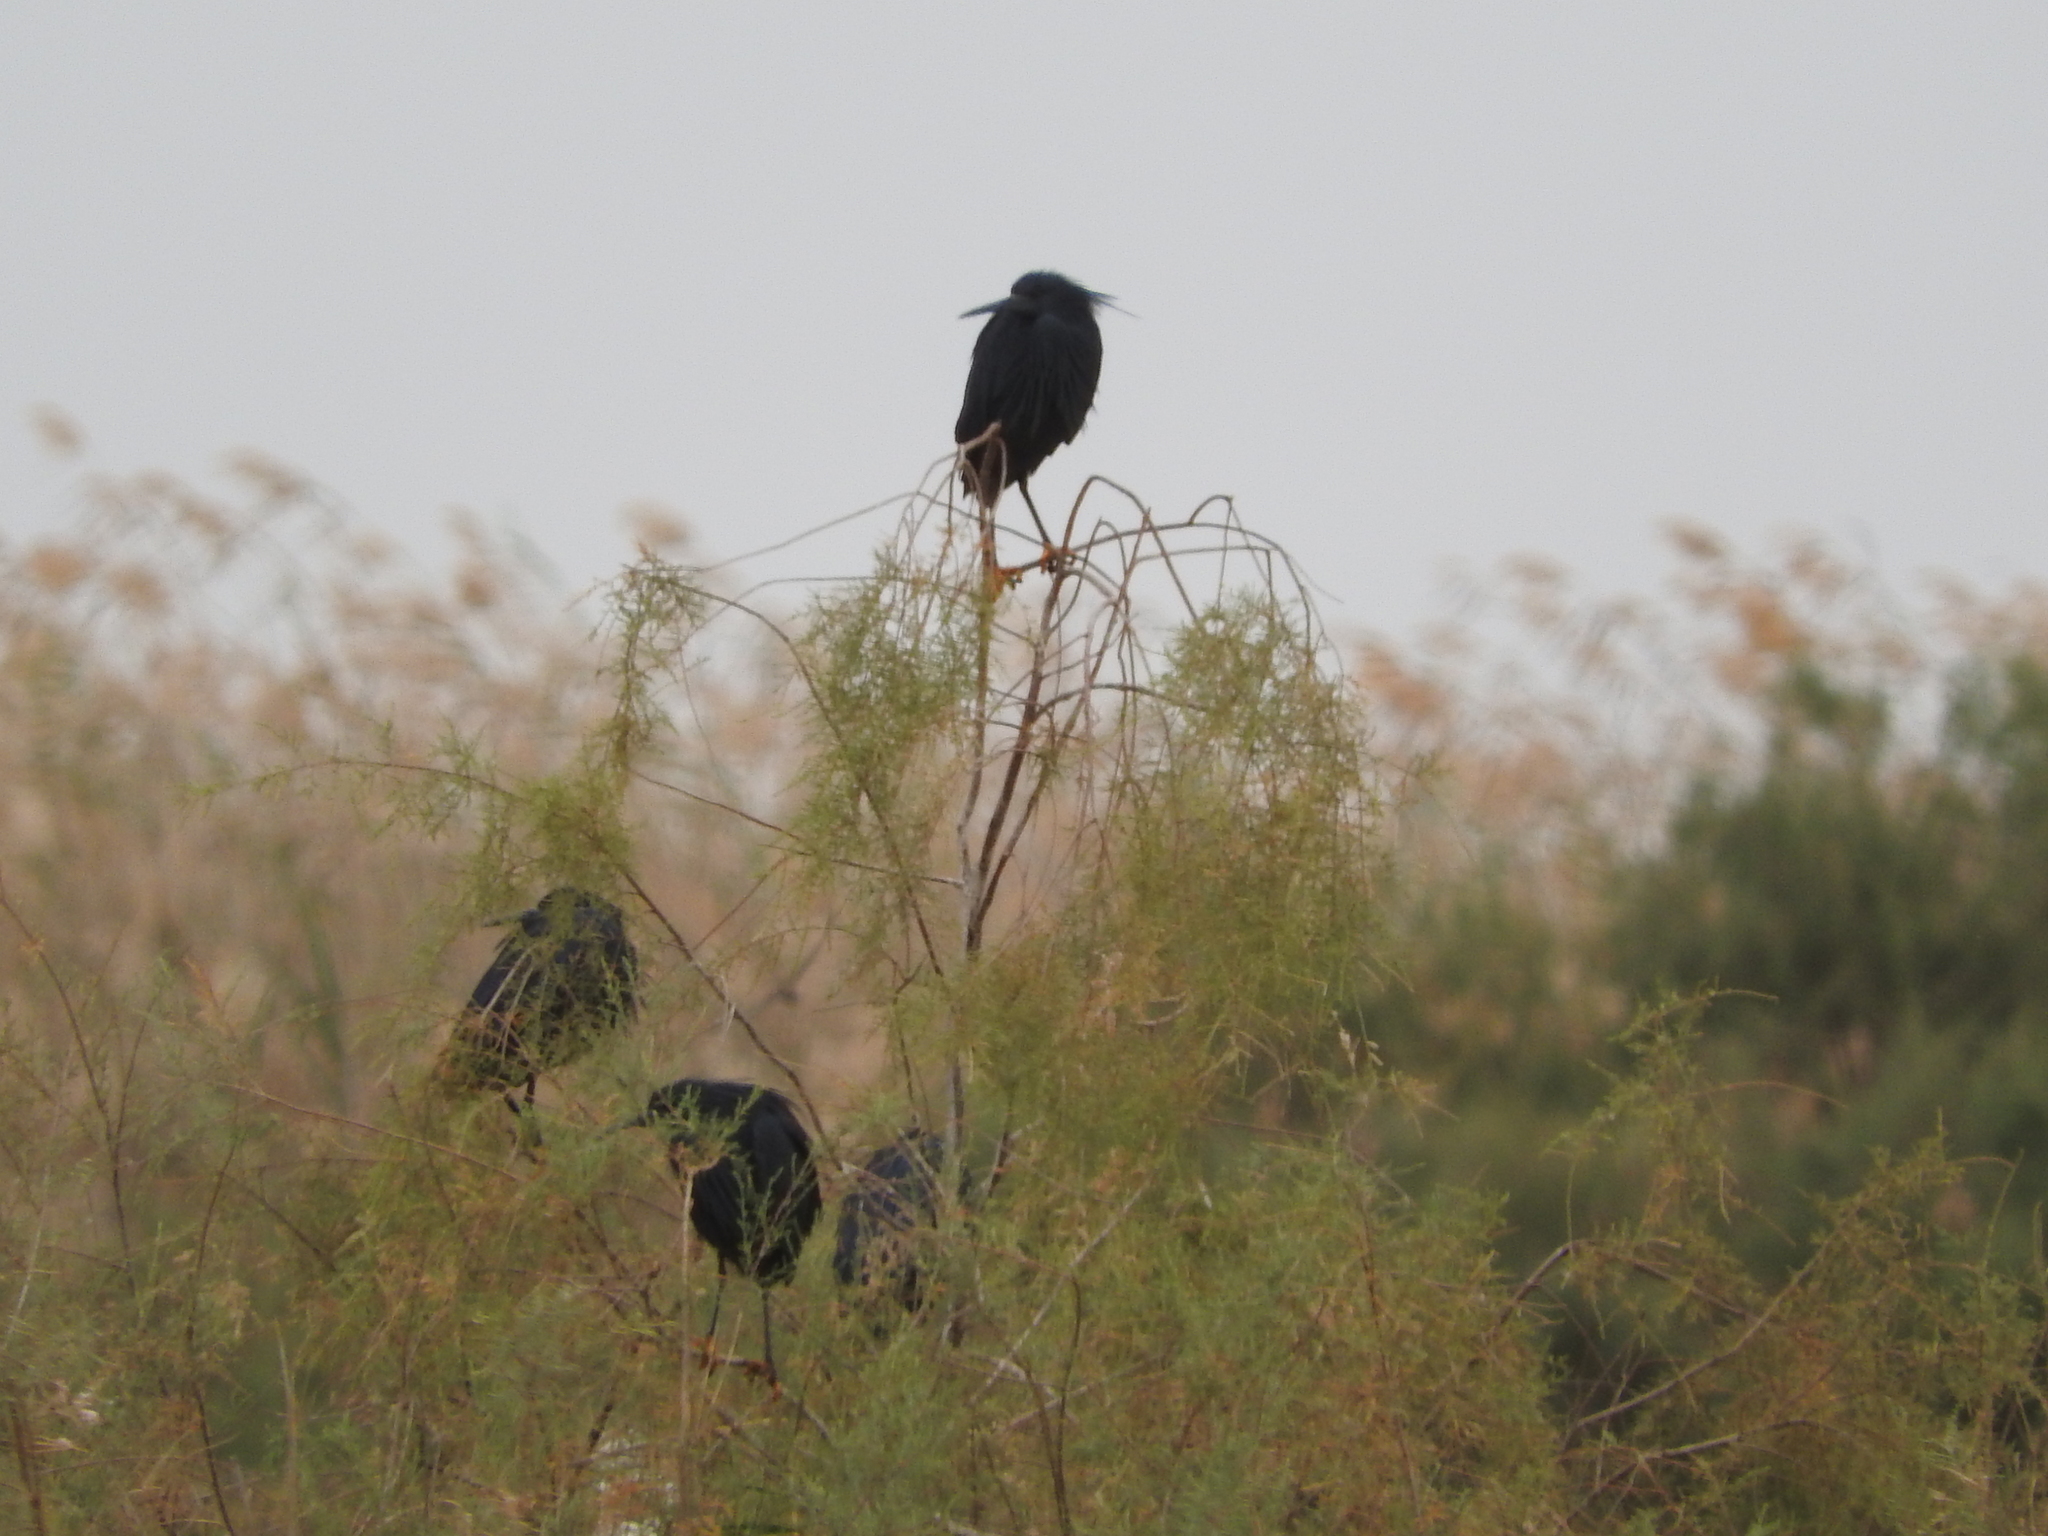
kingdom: Animalia
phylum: Chordata
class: Aves
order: Pelecaniformes
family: Ardeidae
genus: Egretta
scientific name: Egretta ardesiaca
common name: Black heron
